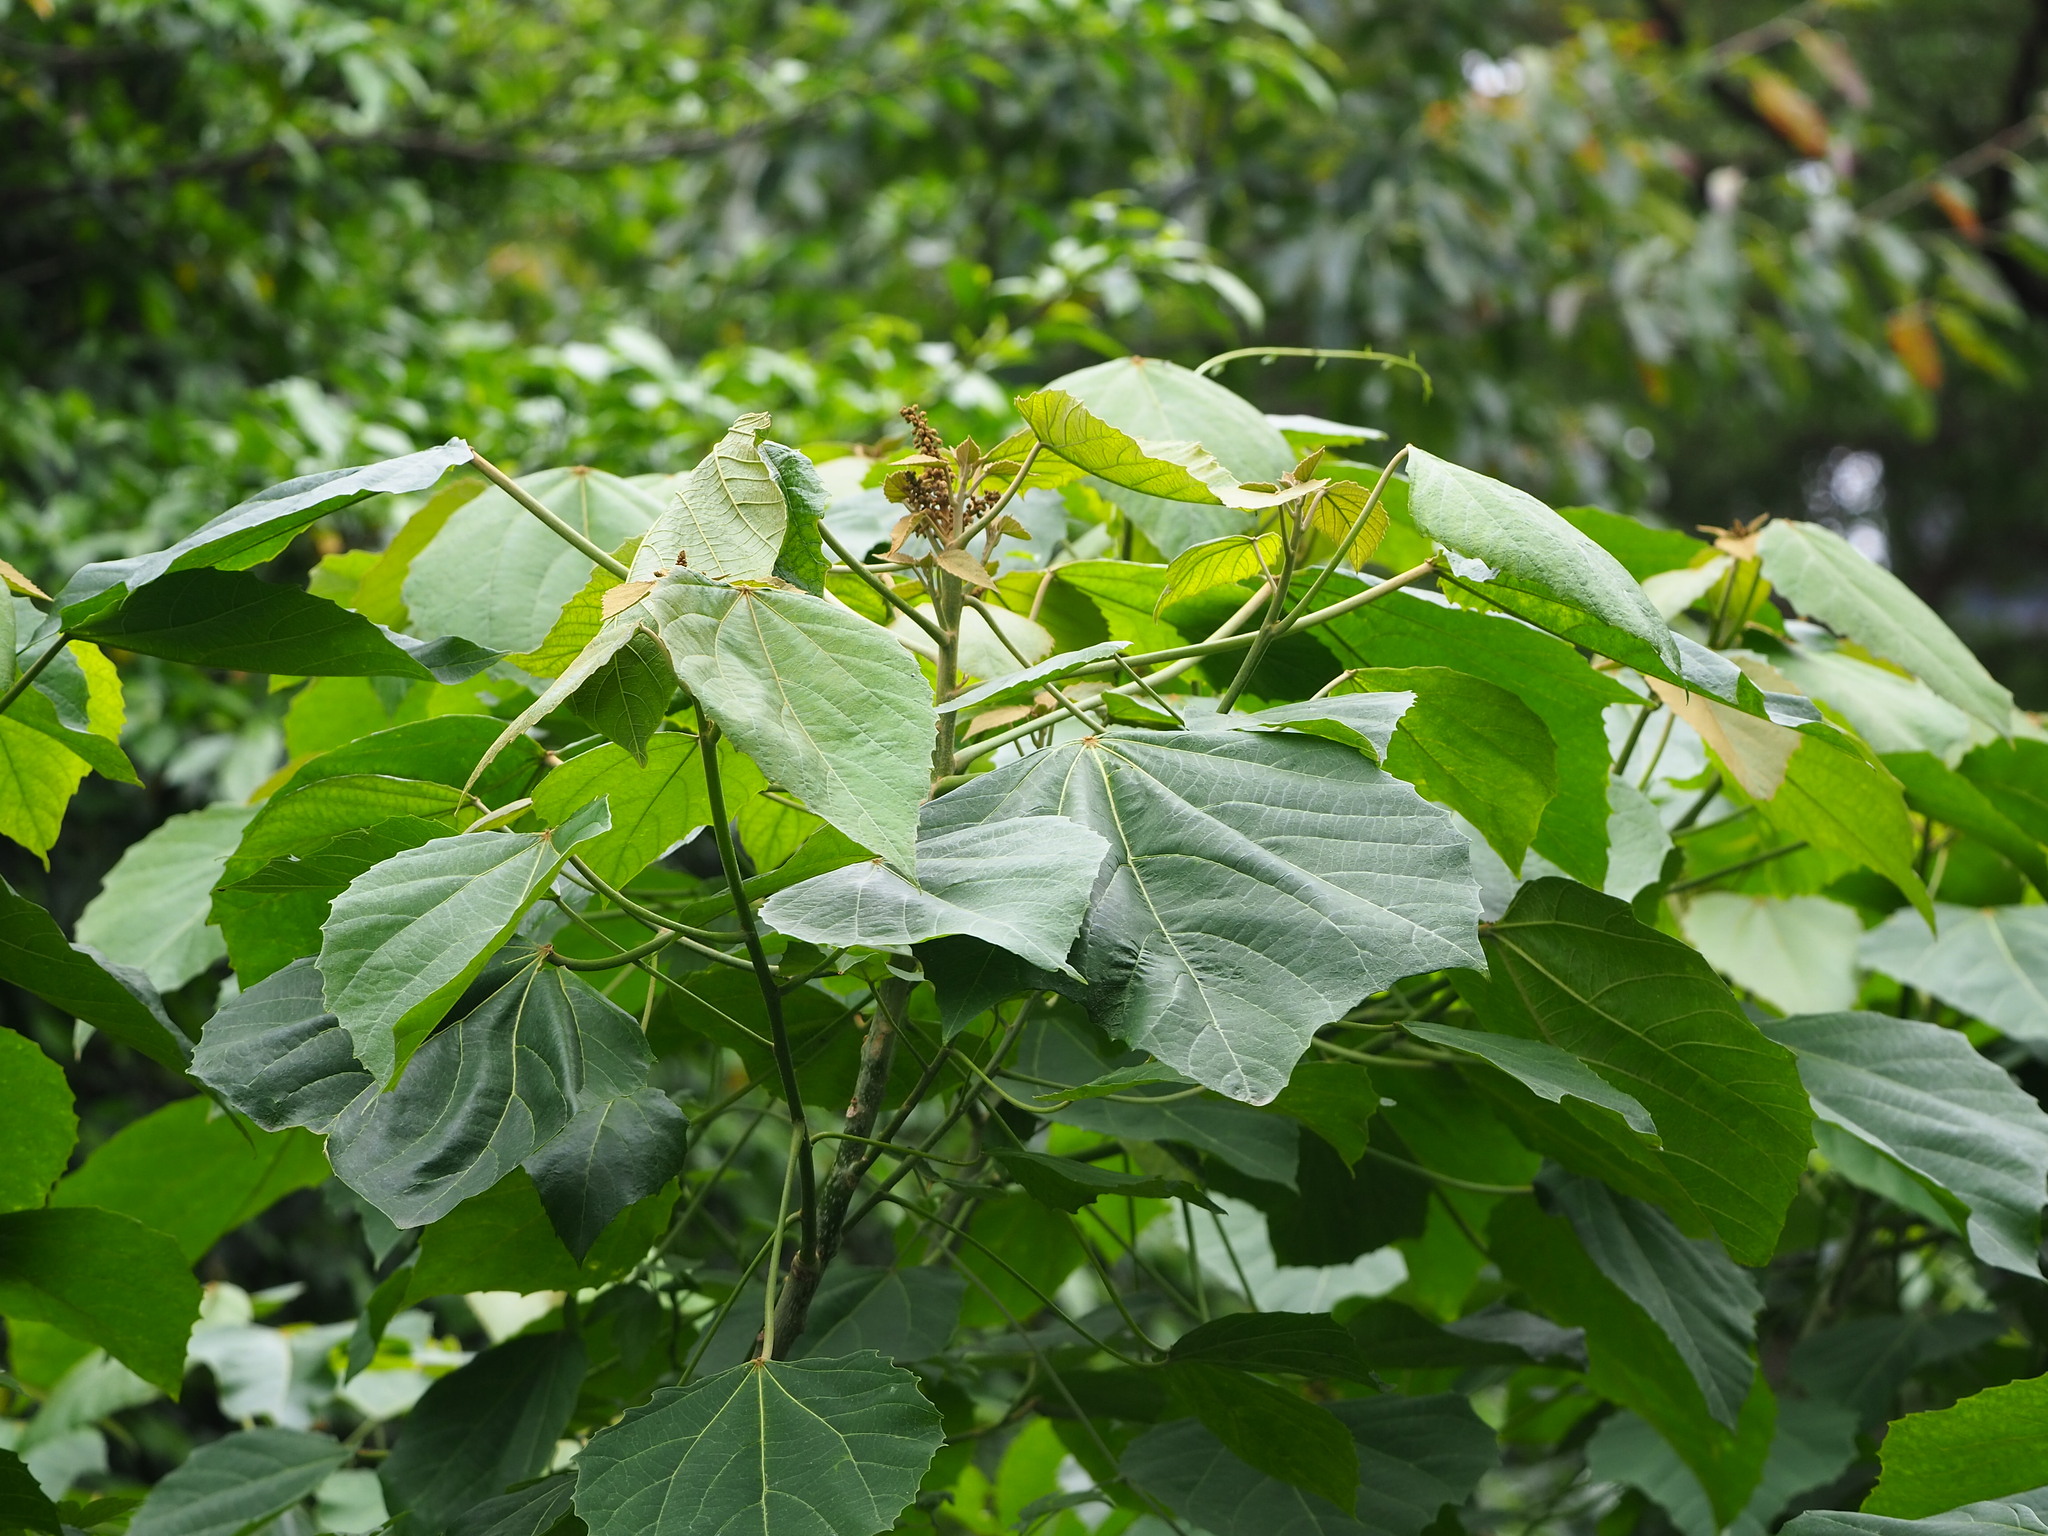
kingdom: Plantae
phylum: Tracheophyta
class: Magnoliopsida
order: Malpighiales
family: Euphorbiaceae
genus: Melanolepis
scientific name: Melanolepis multiglandulosa
